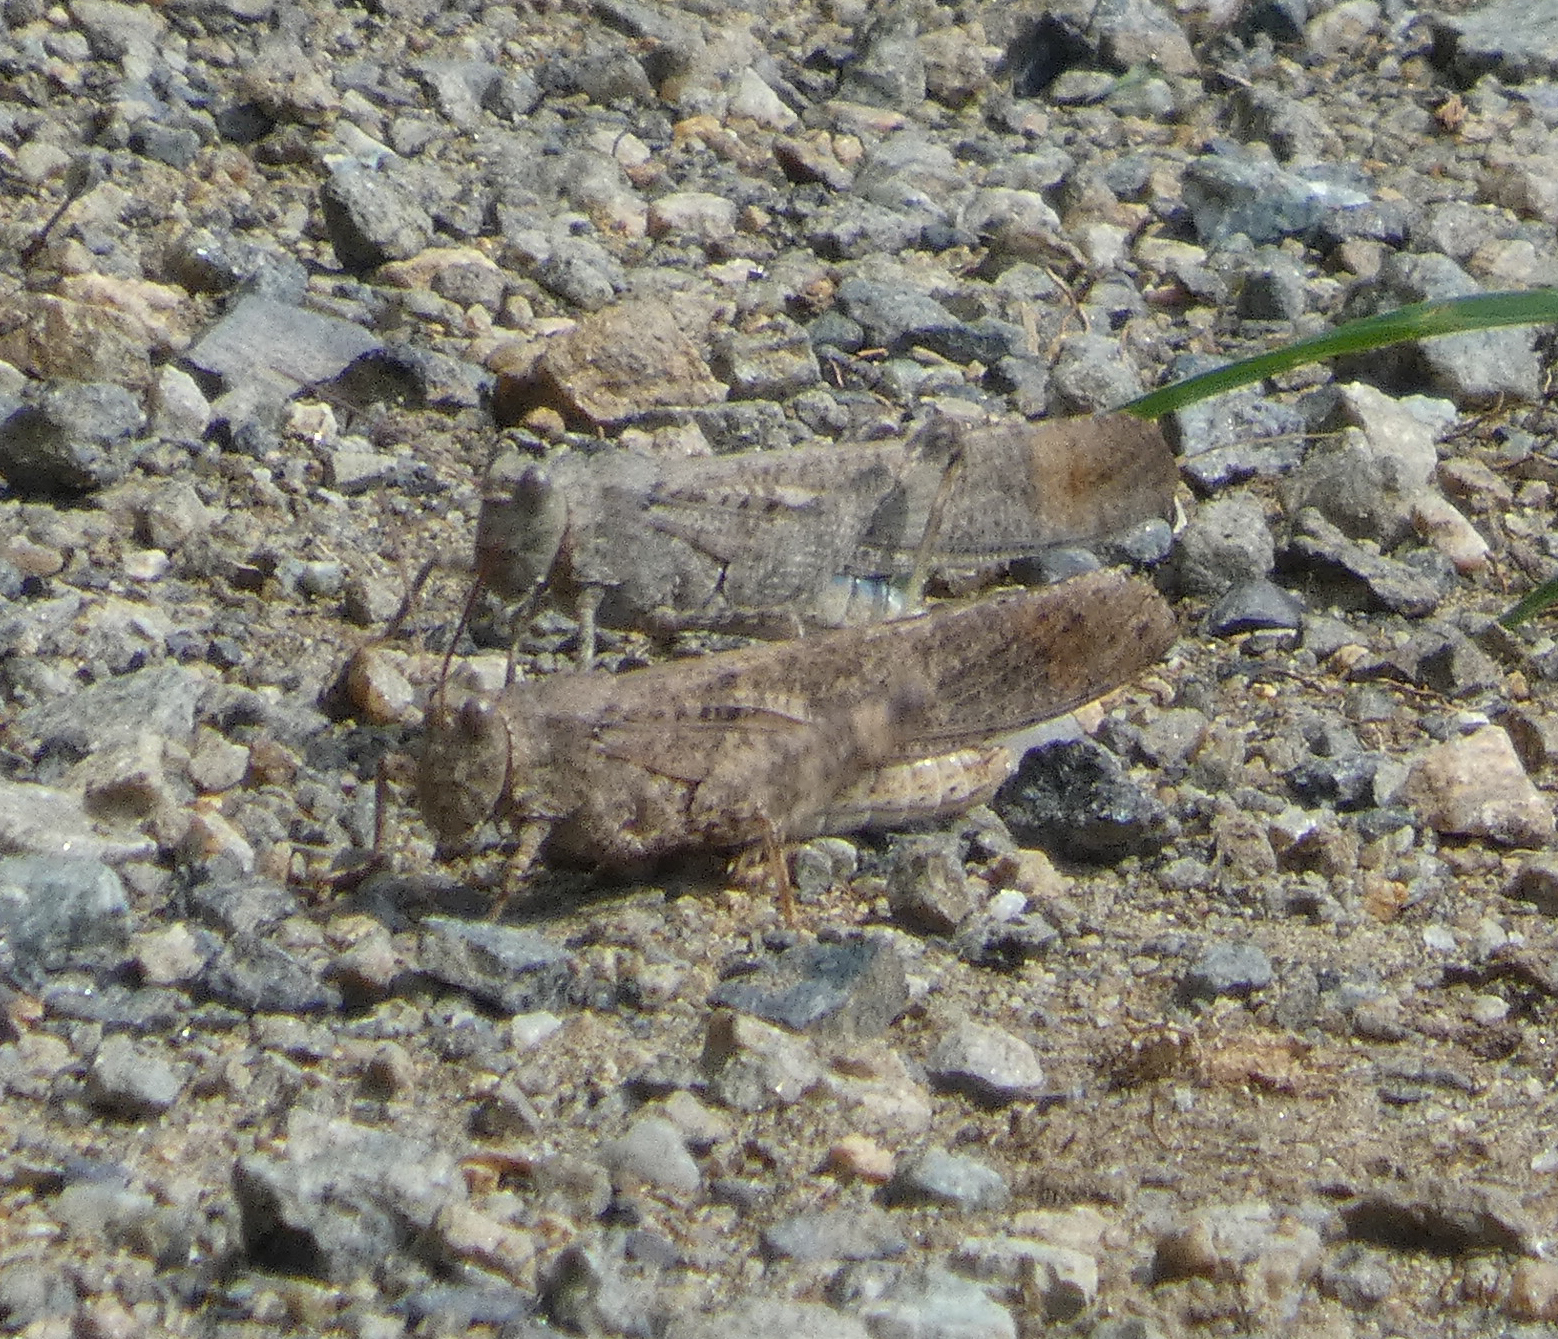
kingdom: Animalia
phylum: Arthropoda
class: Insecta
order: Orthoptera
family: Acrididae
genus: Dissosteira
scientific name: Dissosteira carolina
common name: Carolina grasshopper
